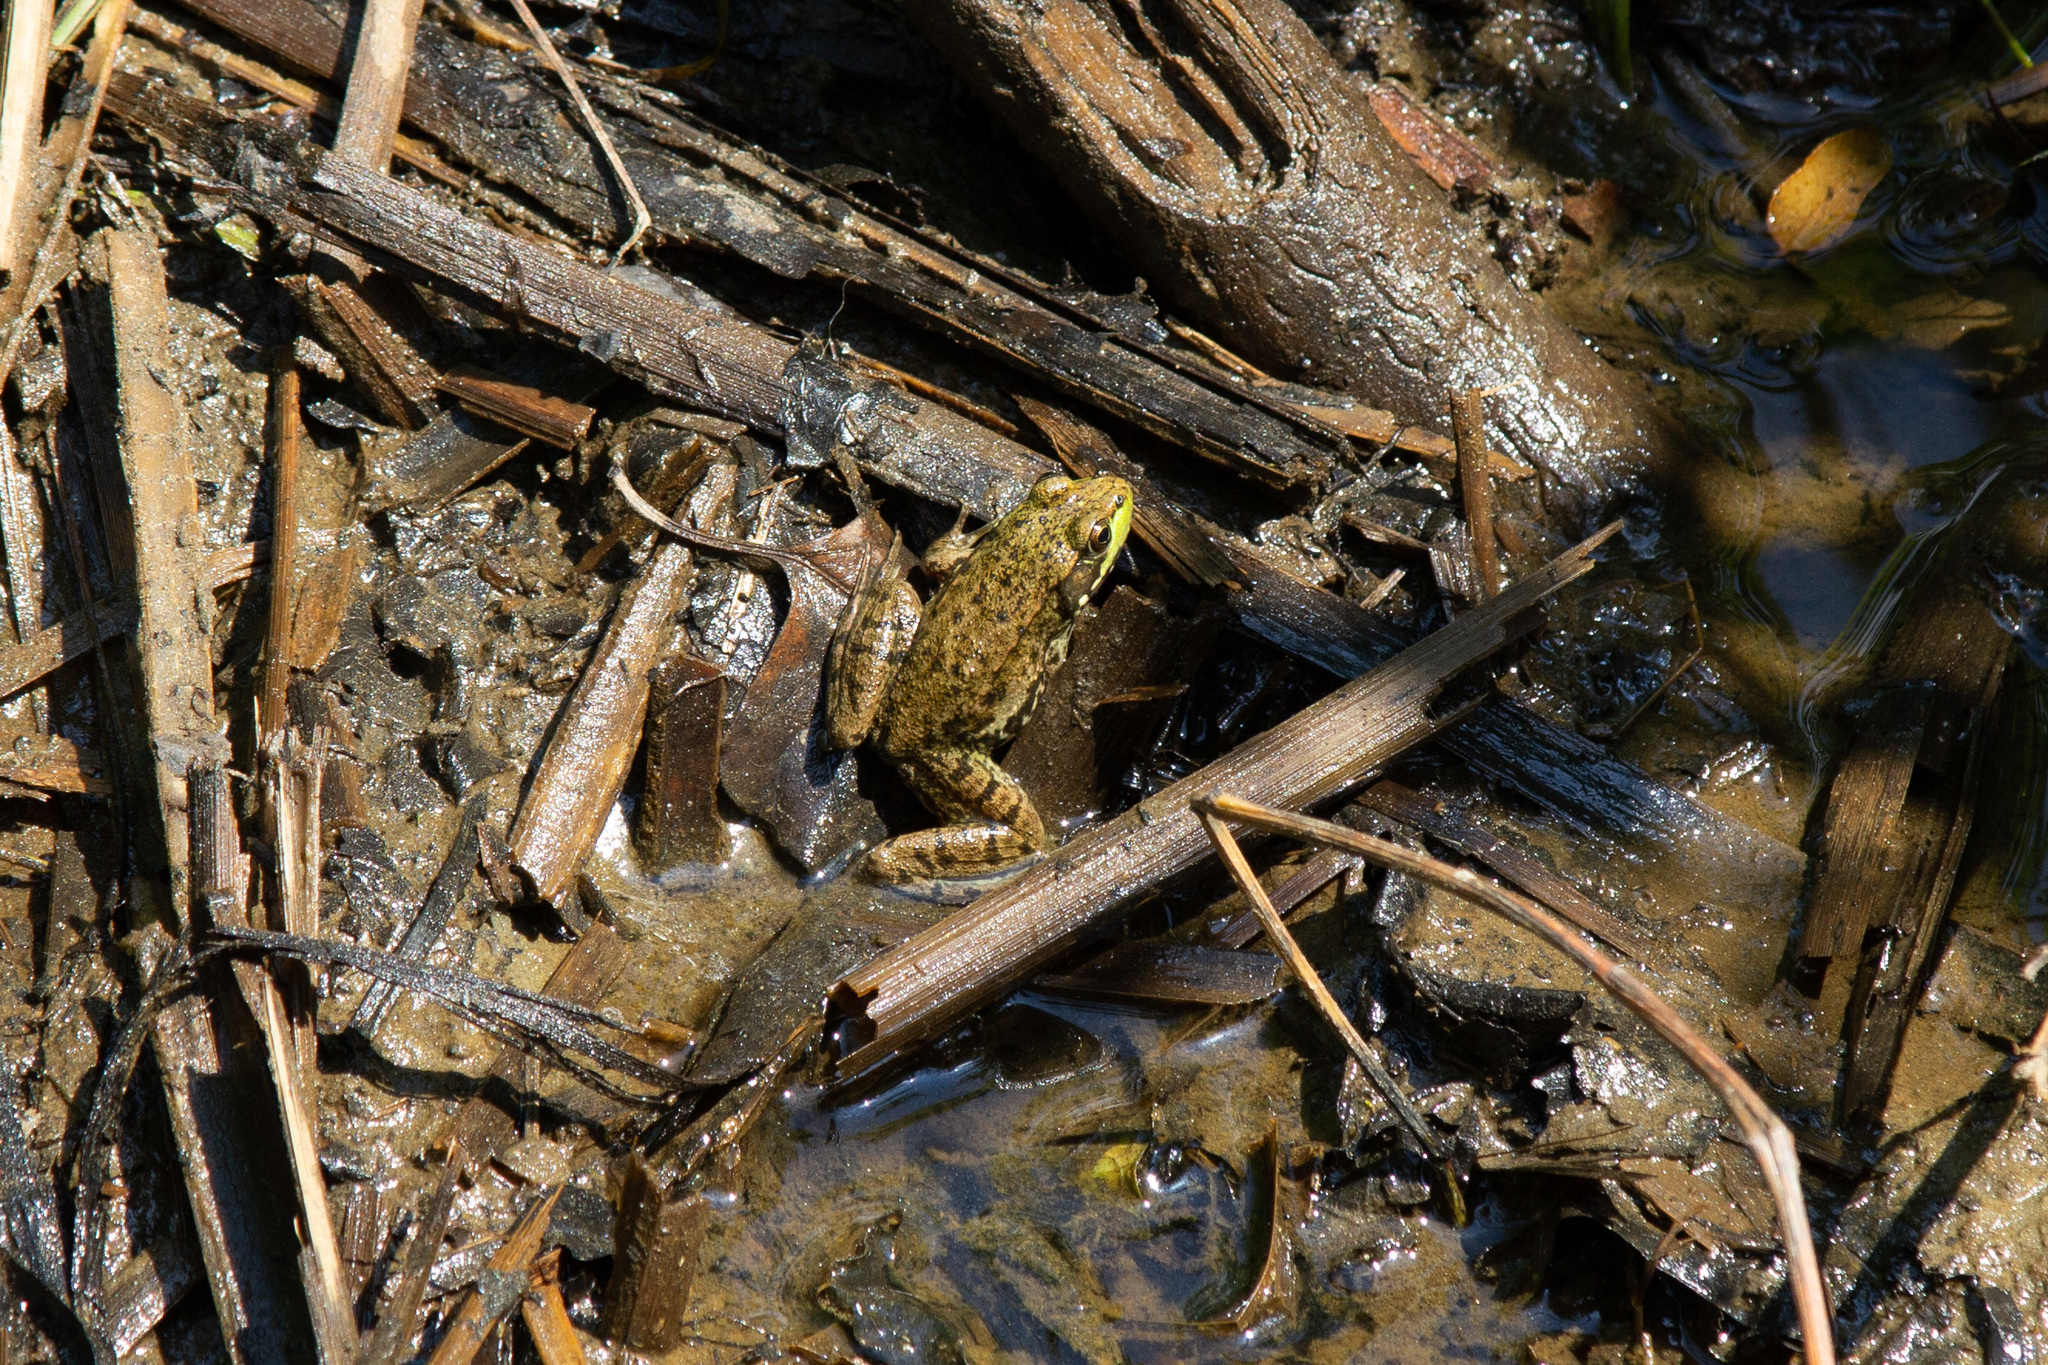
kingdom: Animalia
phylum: Chordata
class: Amphibia
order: Anura
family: Ranidae
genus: Lithobates
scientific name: Lithobates clamitans
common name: Green frog
